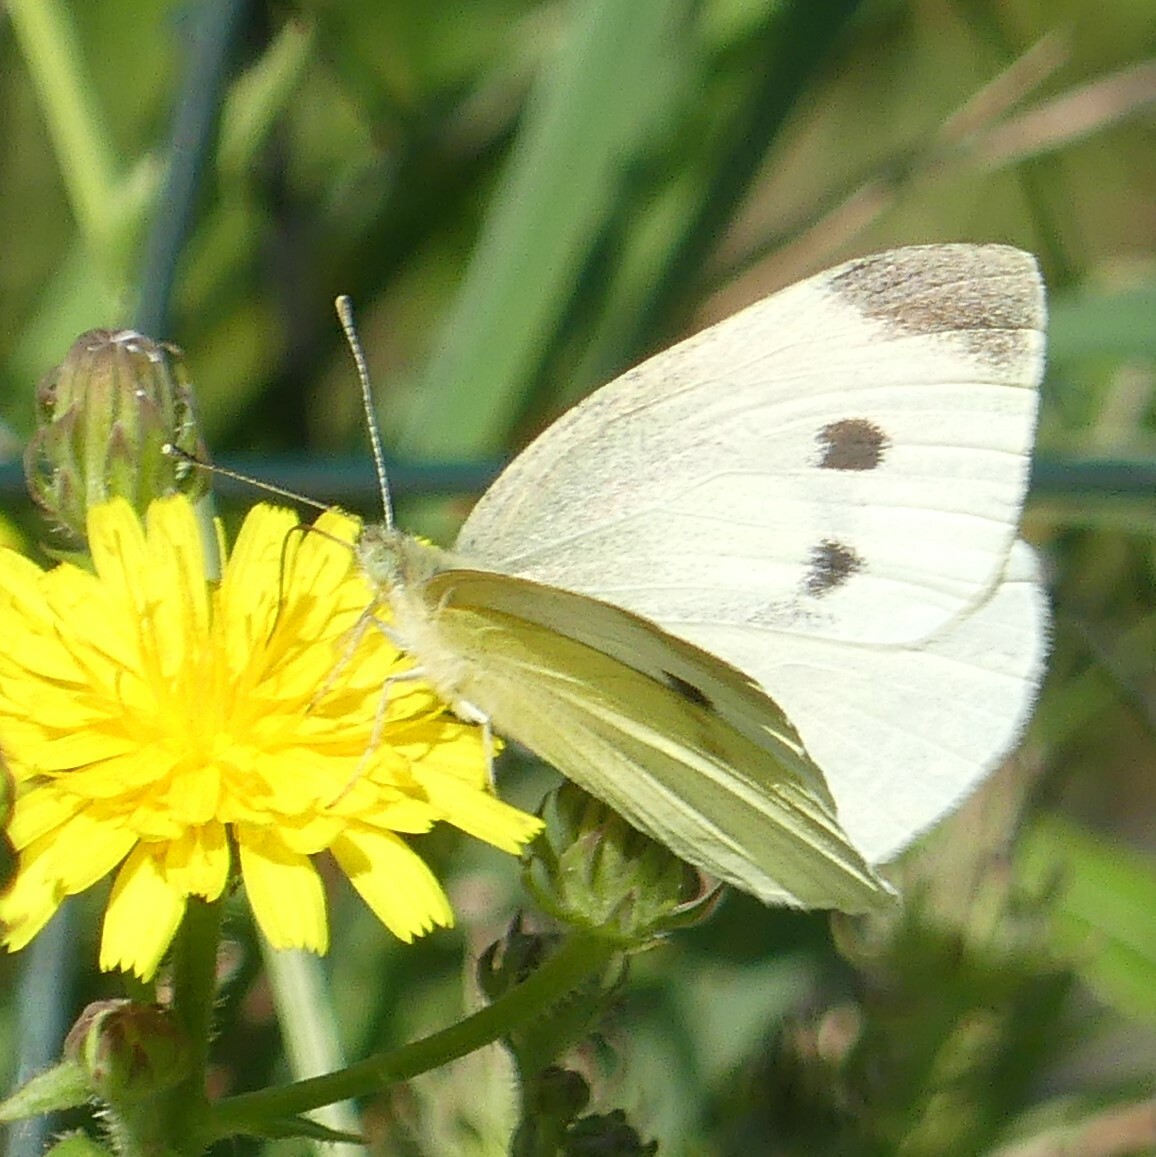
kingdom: Animalia
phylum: Arthropoda
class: Insecta
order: Lepidoptera
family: Pieridae
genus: Pieris
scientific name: Pieris rapae
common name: Small white
